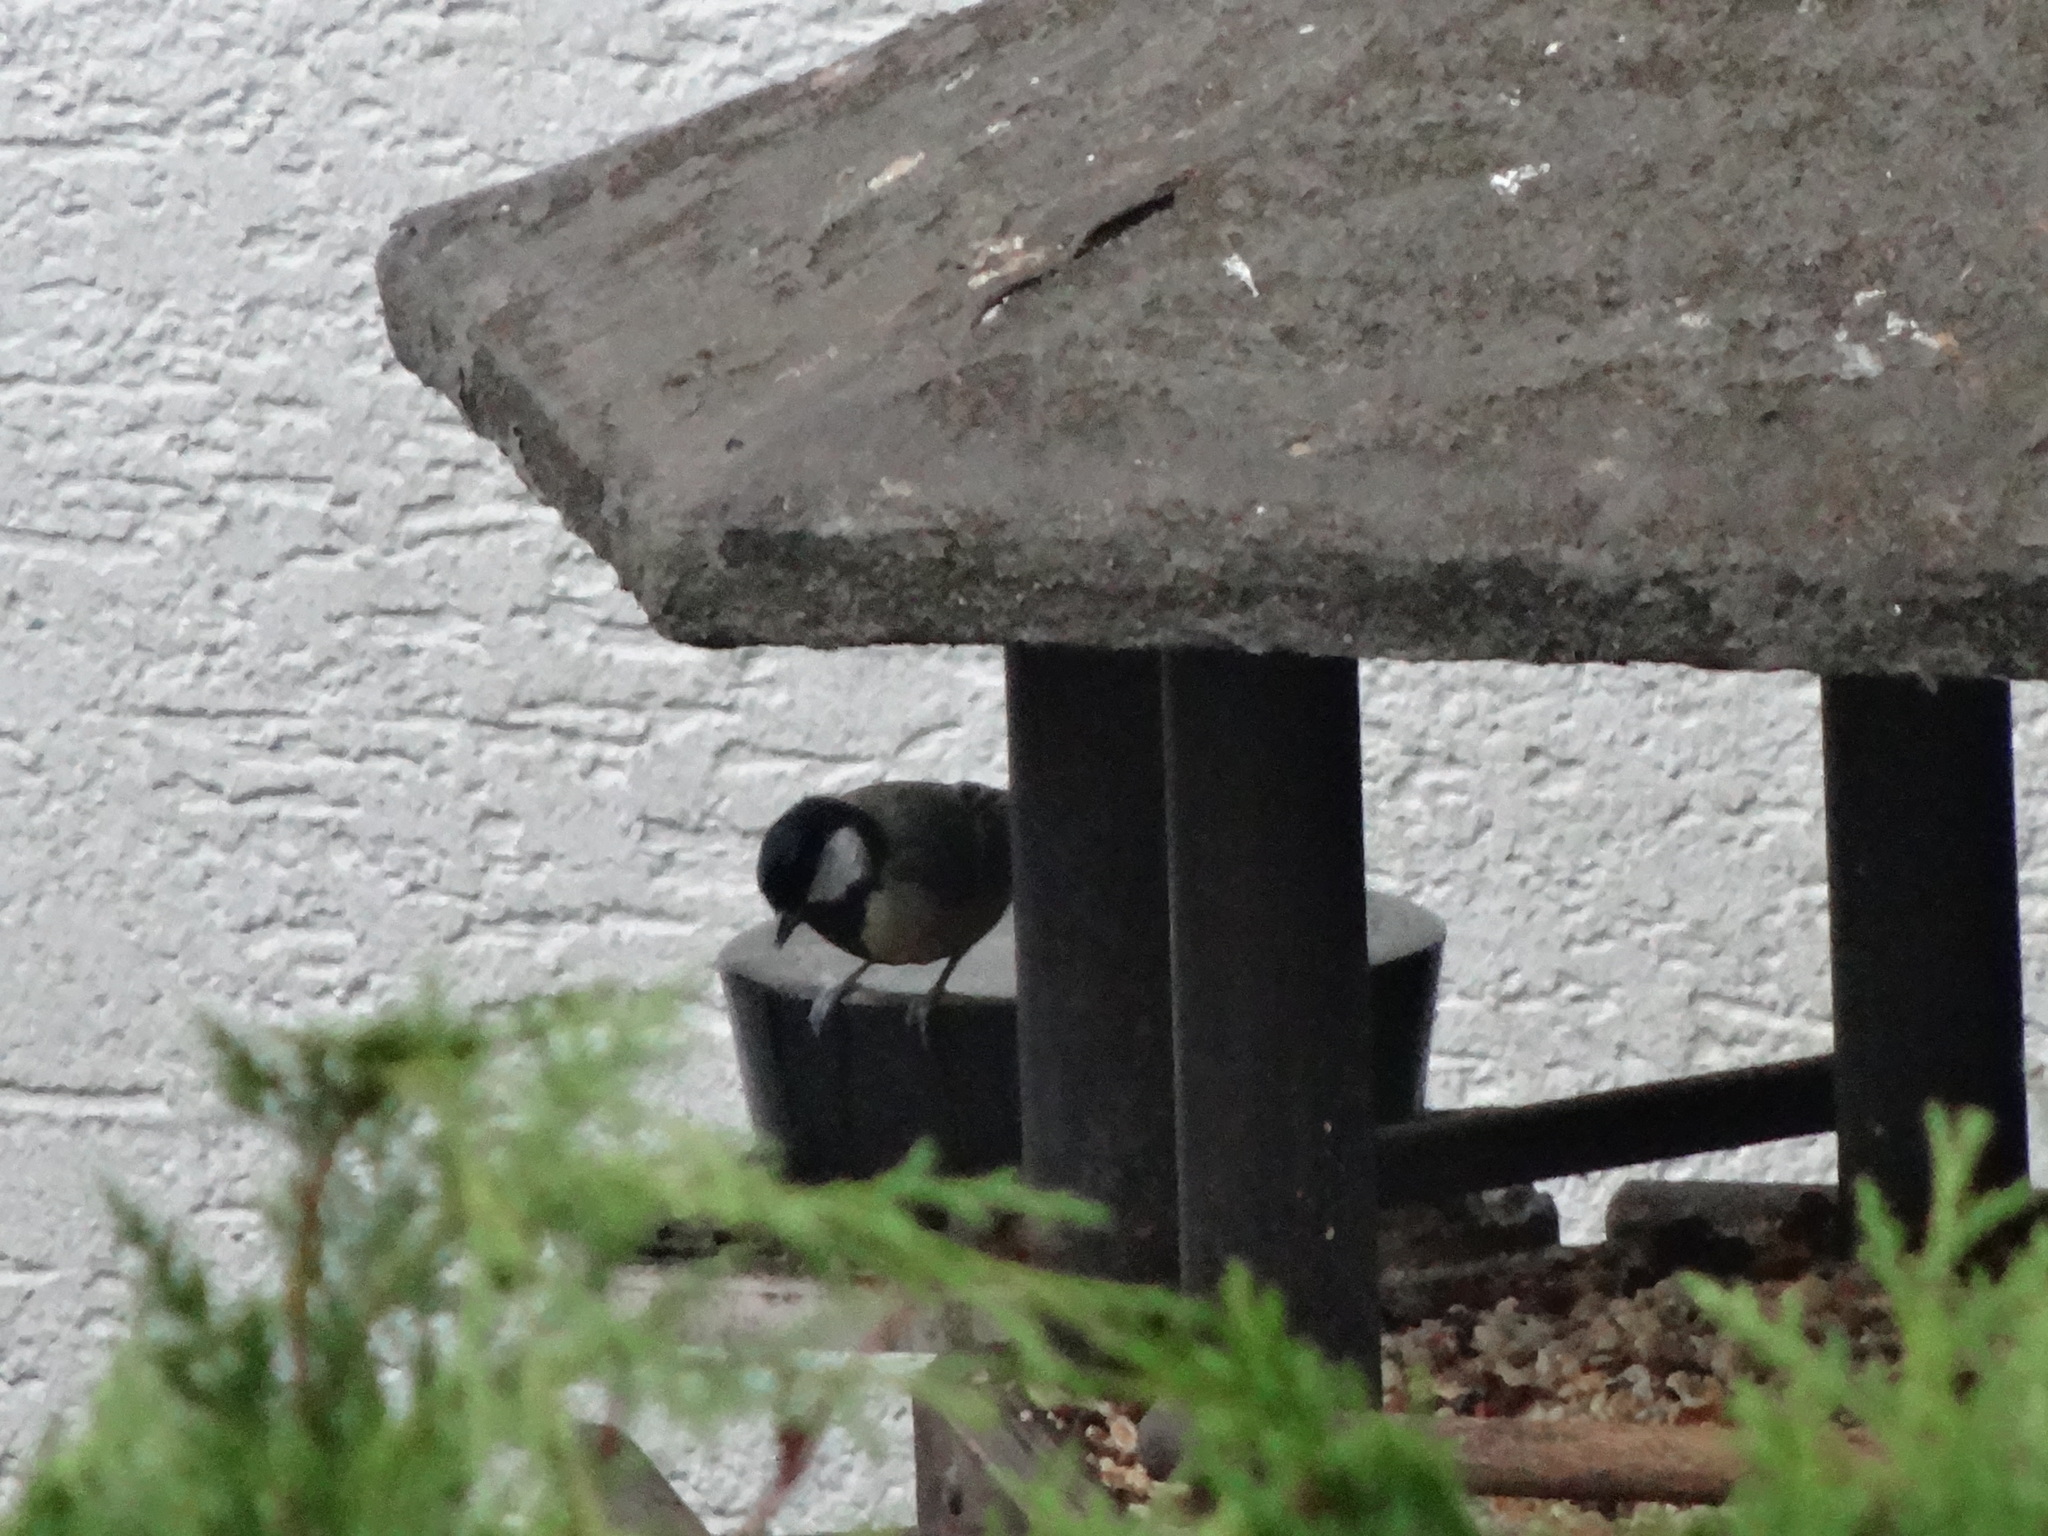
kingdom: Animalia
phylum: Chordata
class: Aves
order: Passeriformes
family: Paridae
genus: Parus
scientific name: Parus major
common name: Great tit
